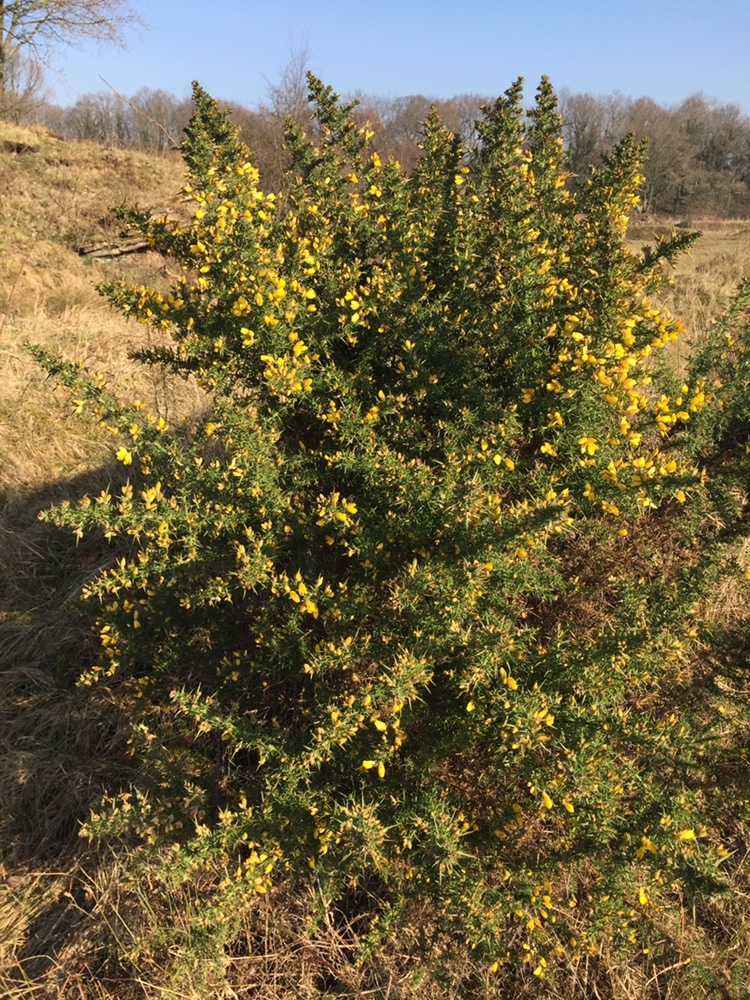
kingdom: Plantae
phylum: Tracheophyta
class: Magnoliopsida
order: Fabales
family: Fabaceae
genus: Ulex
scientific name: Ulex europaeus
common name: Common gorse
